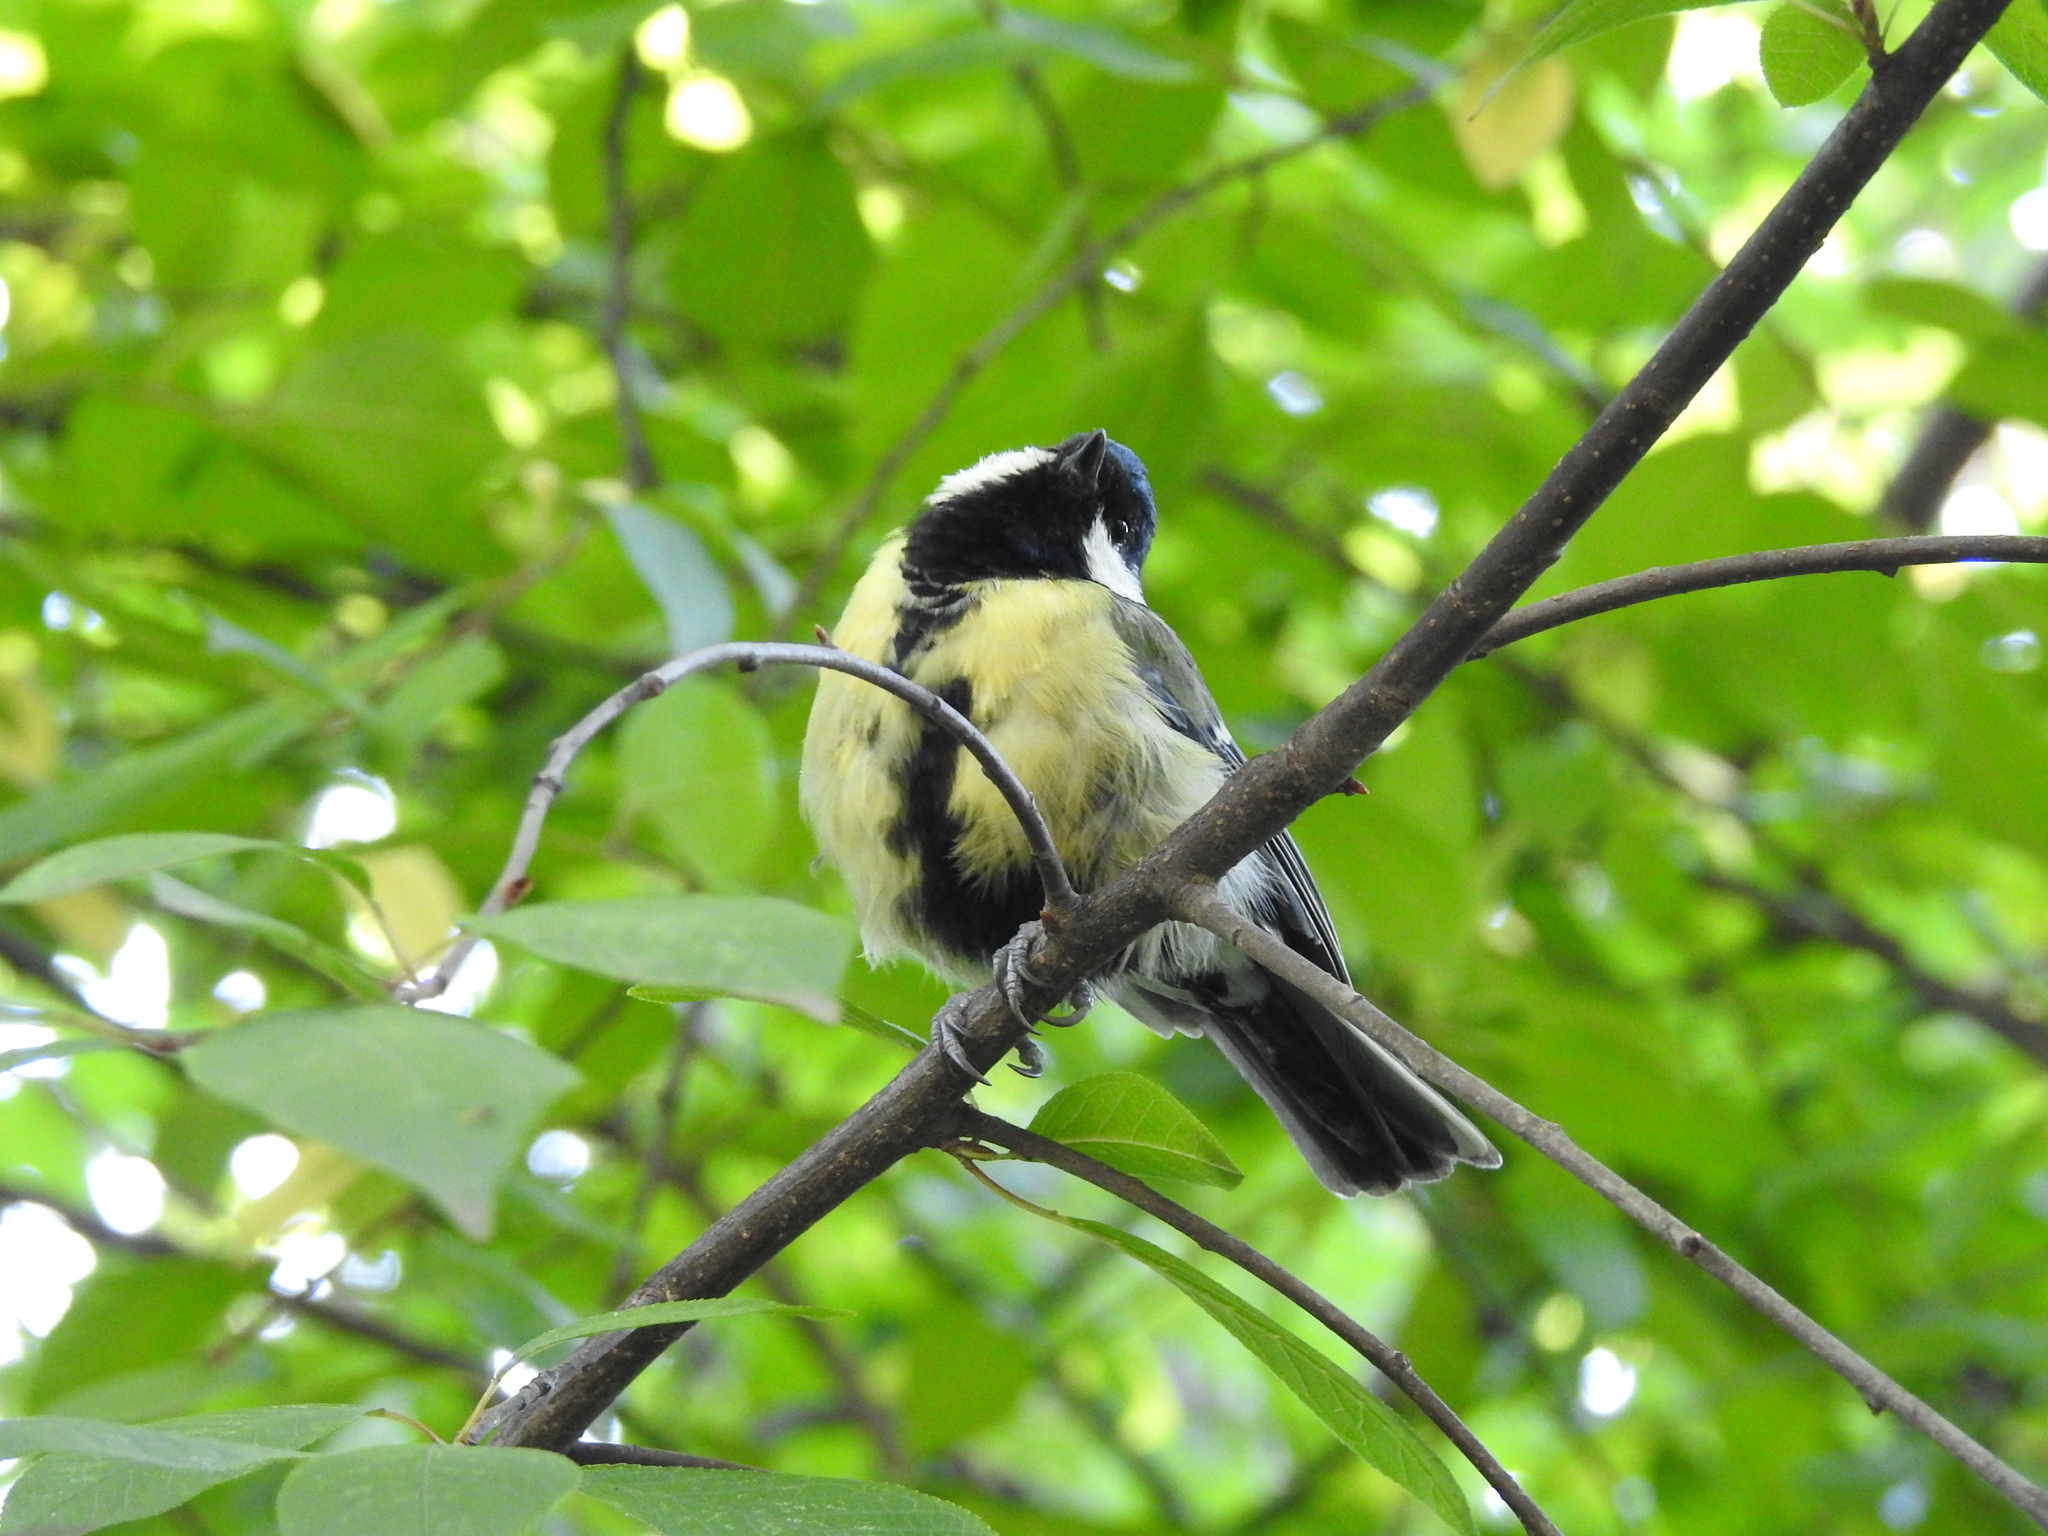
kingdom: Animalia
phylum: Chordata
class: Aves
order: Passeriformes
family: Paridae
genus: Parus
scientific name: Parus major
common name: Great tit
